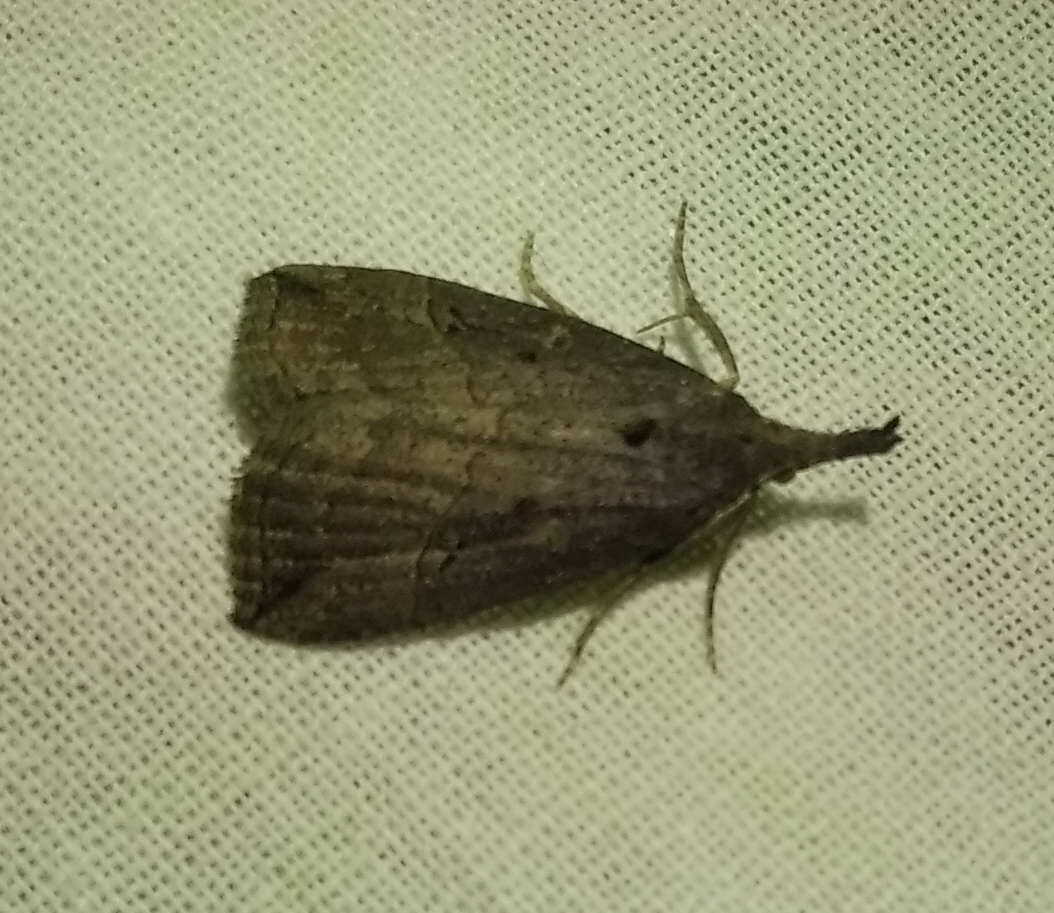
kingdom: Animalia
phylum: Arthropoda
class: Insecta
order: Lepidoptera
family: Erebidae
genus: Hypena
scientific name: Hypena rostralis
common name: Buttoned snout
